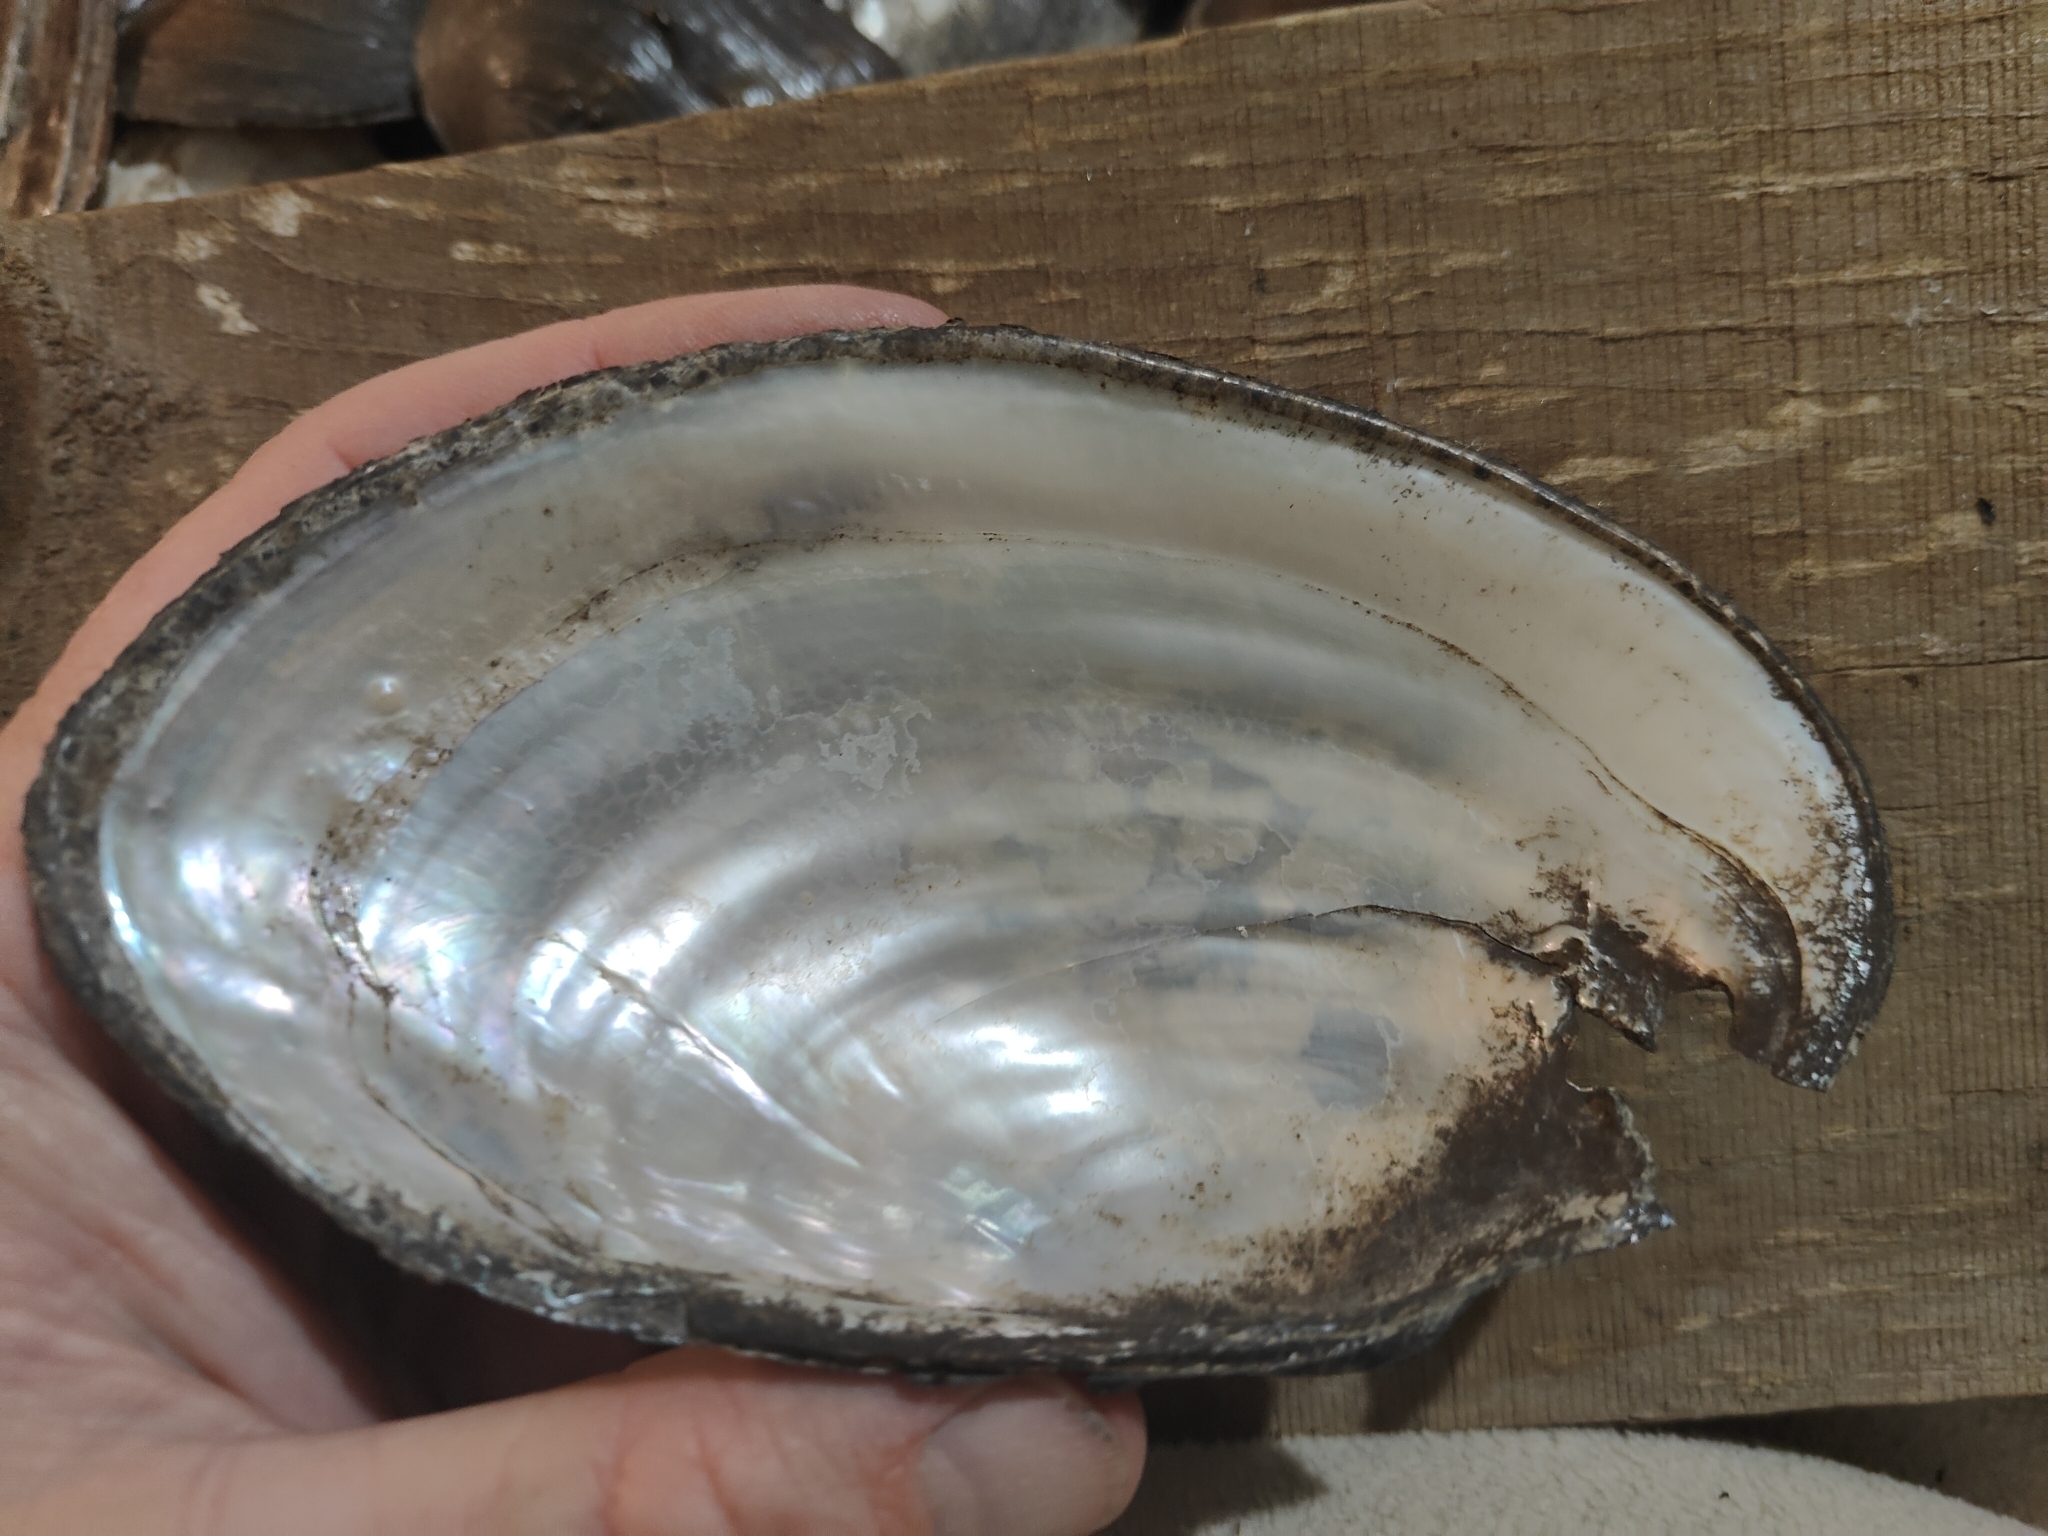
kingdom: Animalia
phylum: Mollusca
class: Bivalvia
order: Unionida
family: Unionidae
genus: Pyganodon
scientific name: Pyganodon grandis
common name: Giant floater
